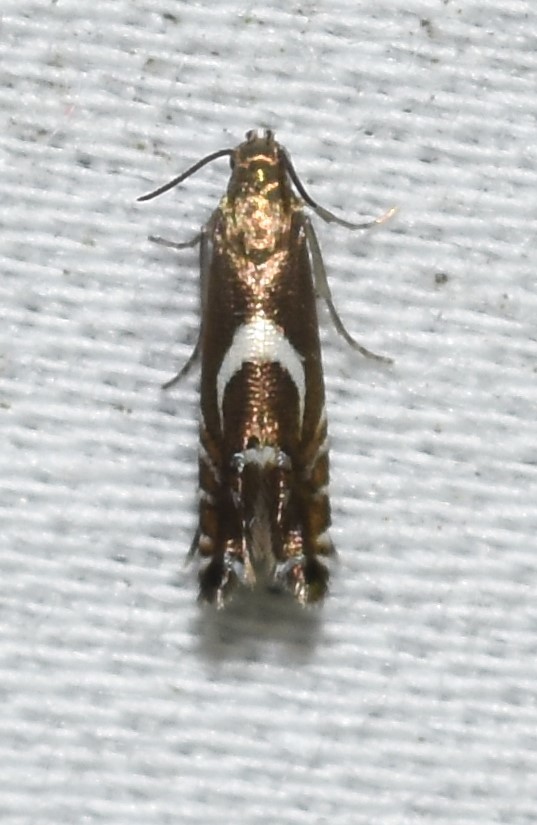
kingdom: Animalia
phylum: Arthropoda
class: Insecta
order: Lepidoptera
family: Glyphipterigidae
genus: Glyphipterix
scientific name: Glyphipterix Diploschizia impigritella
